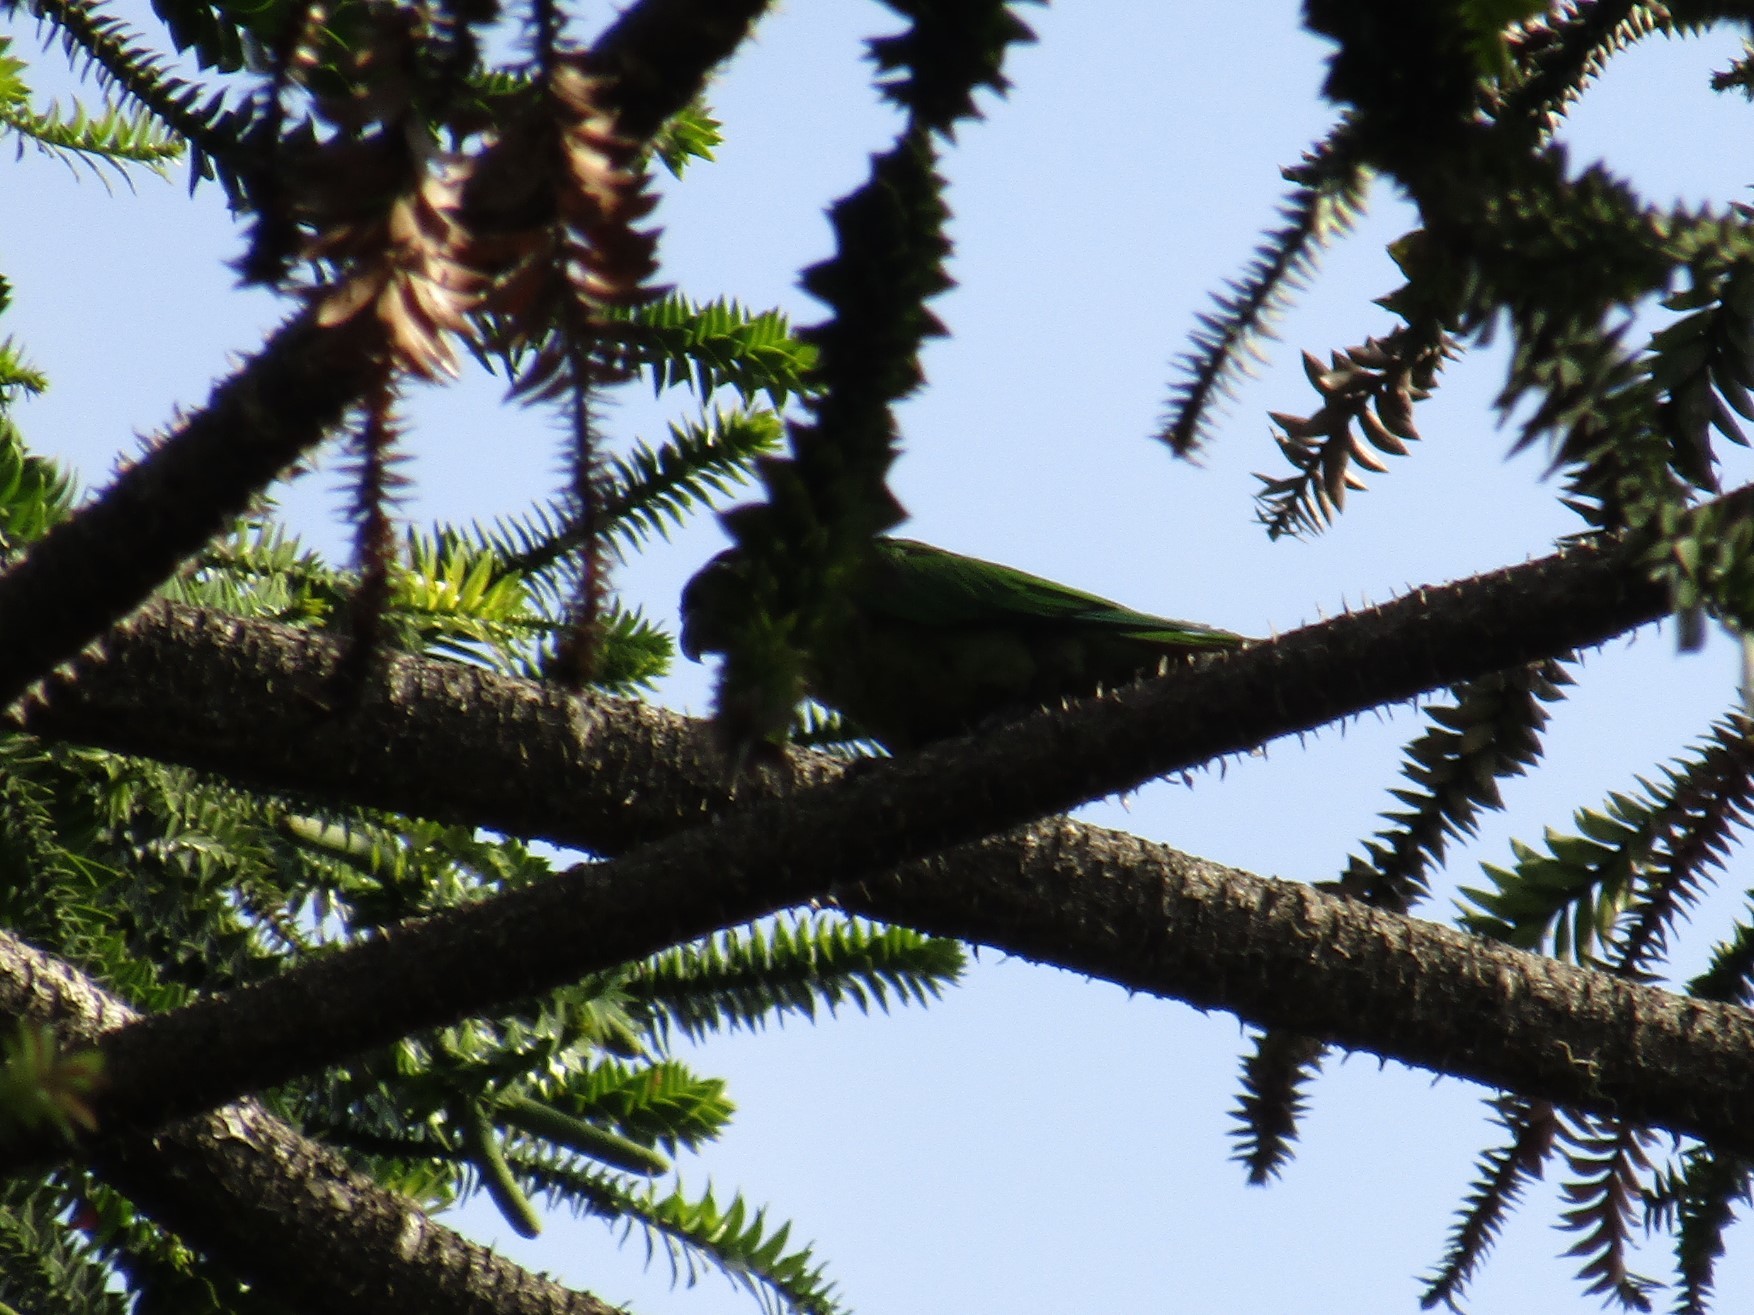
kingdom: Animalia
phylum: Chordata
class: Aves
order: Psittaciformes
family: Psittacidae
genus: Pyrrhura
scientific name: Pyrrhura frontalis
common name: Maroon-bellied parakeet
